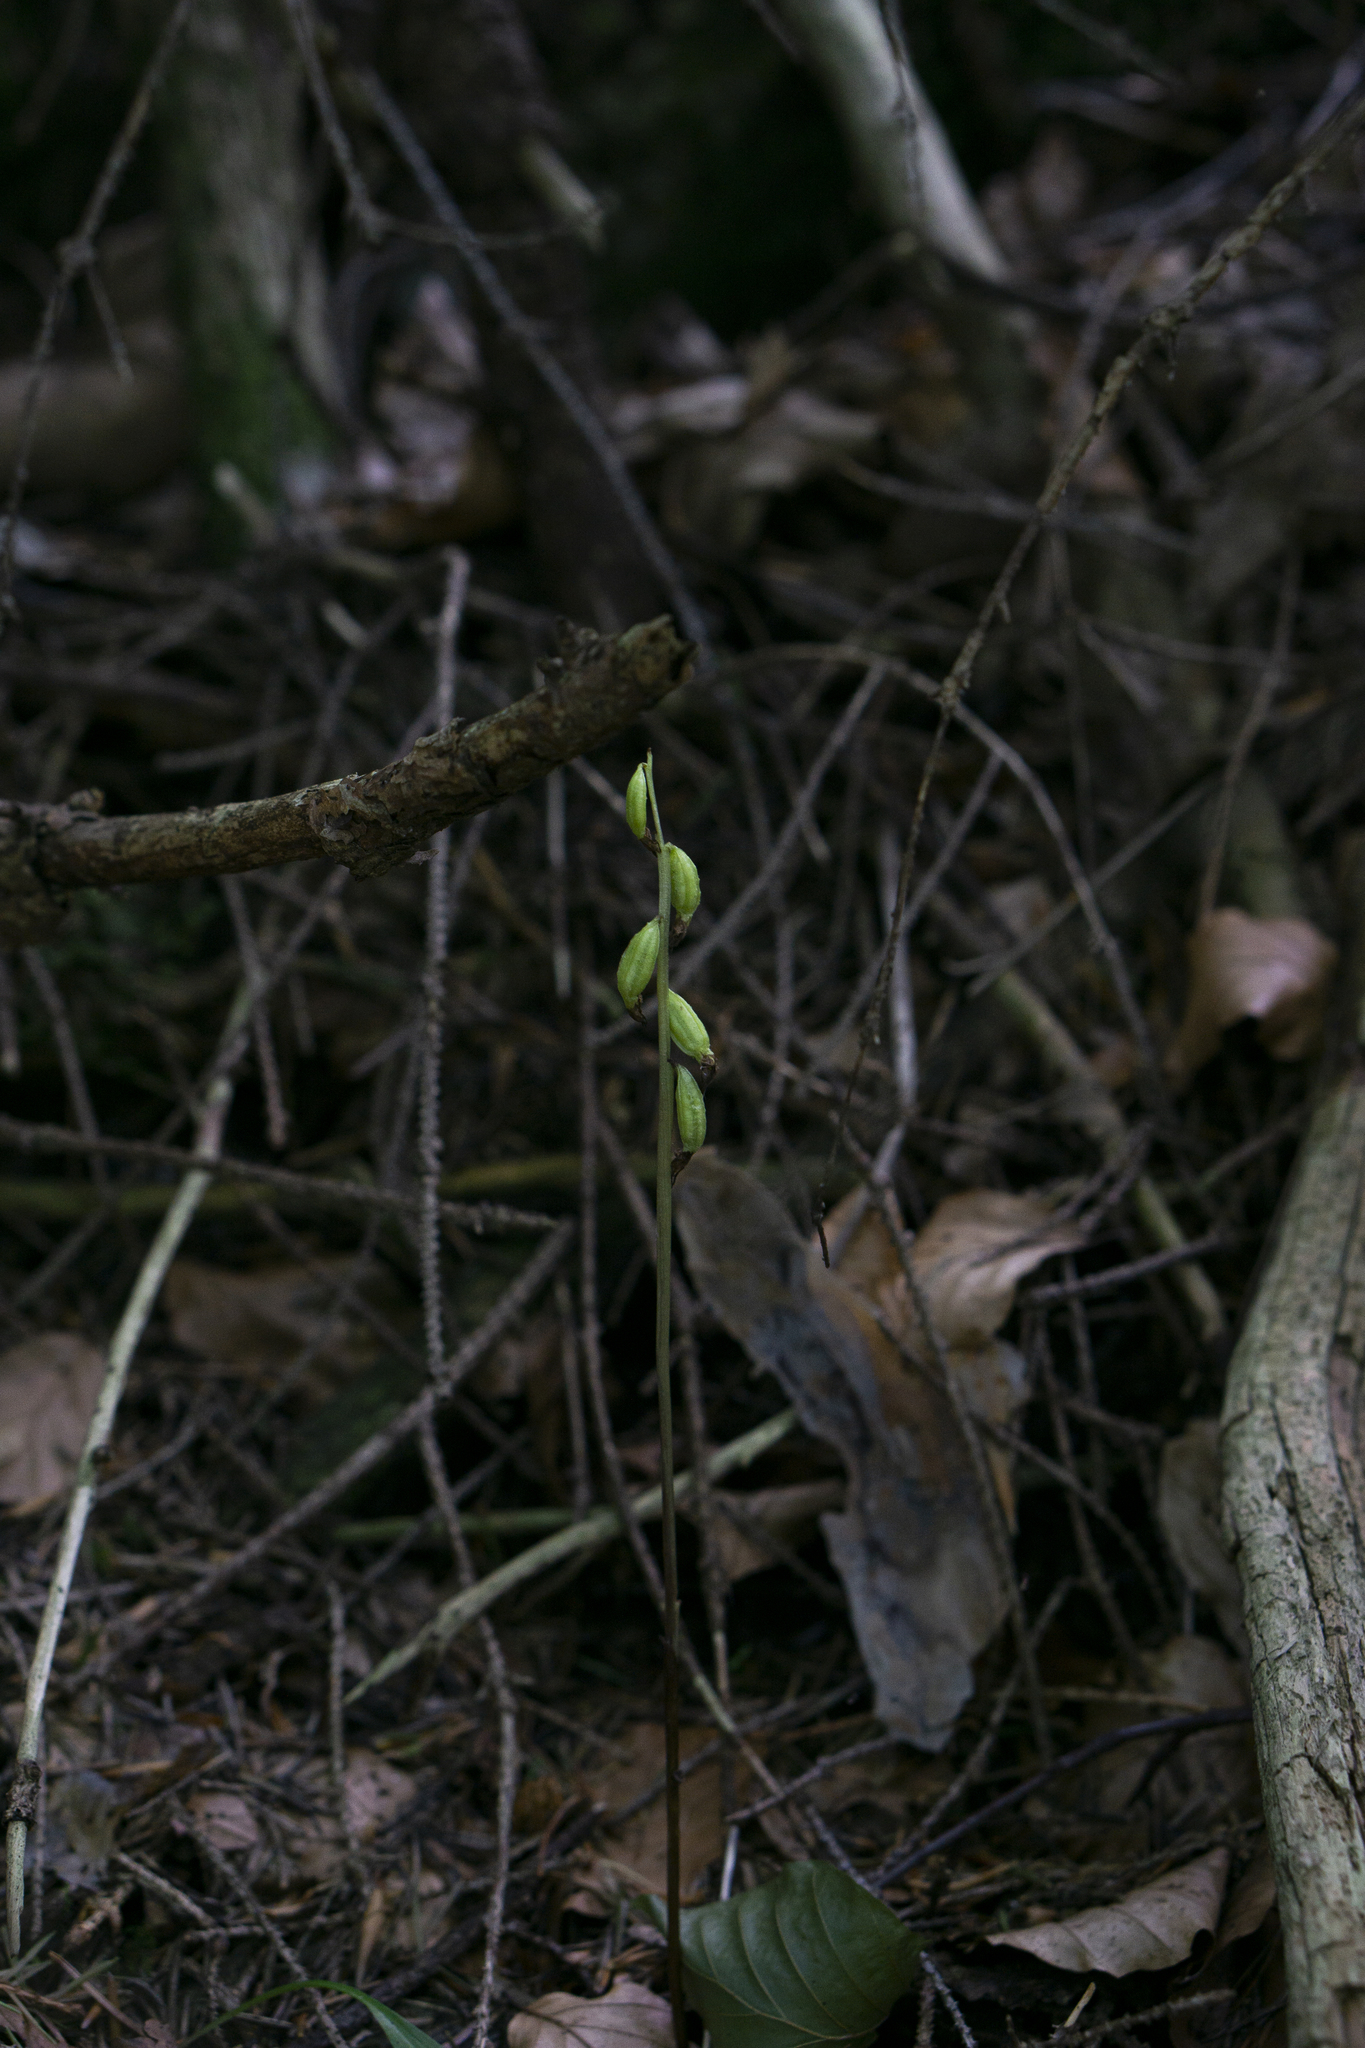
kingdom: Plantae
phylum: Tracheophyta
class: Liliopsida
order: Asparagales
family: Orchidaceae
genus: Corallorhiza
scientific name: Corallorhiza trifida
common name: Yellow coralroot
